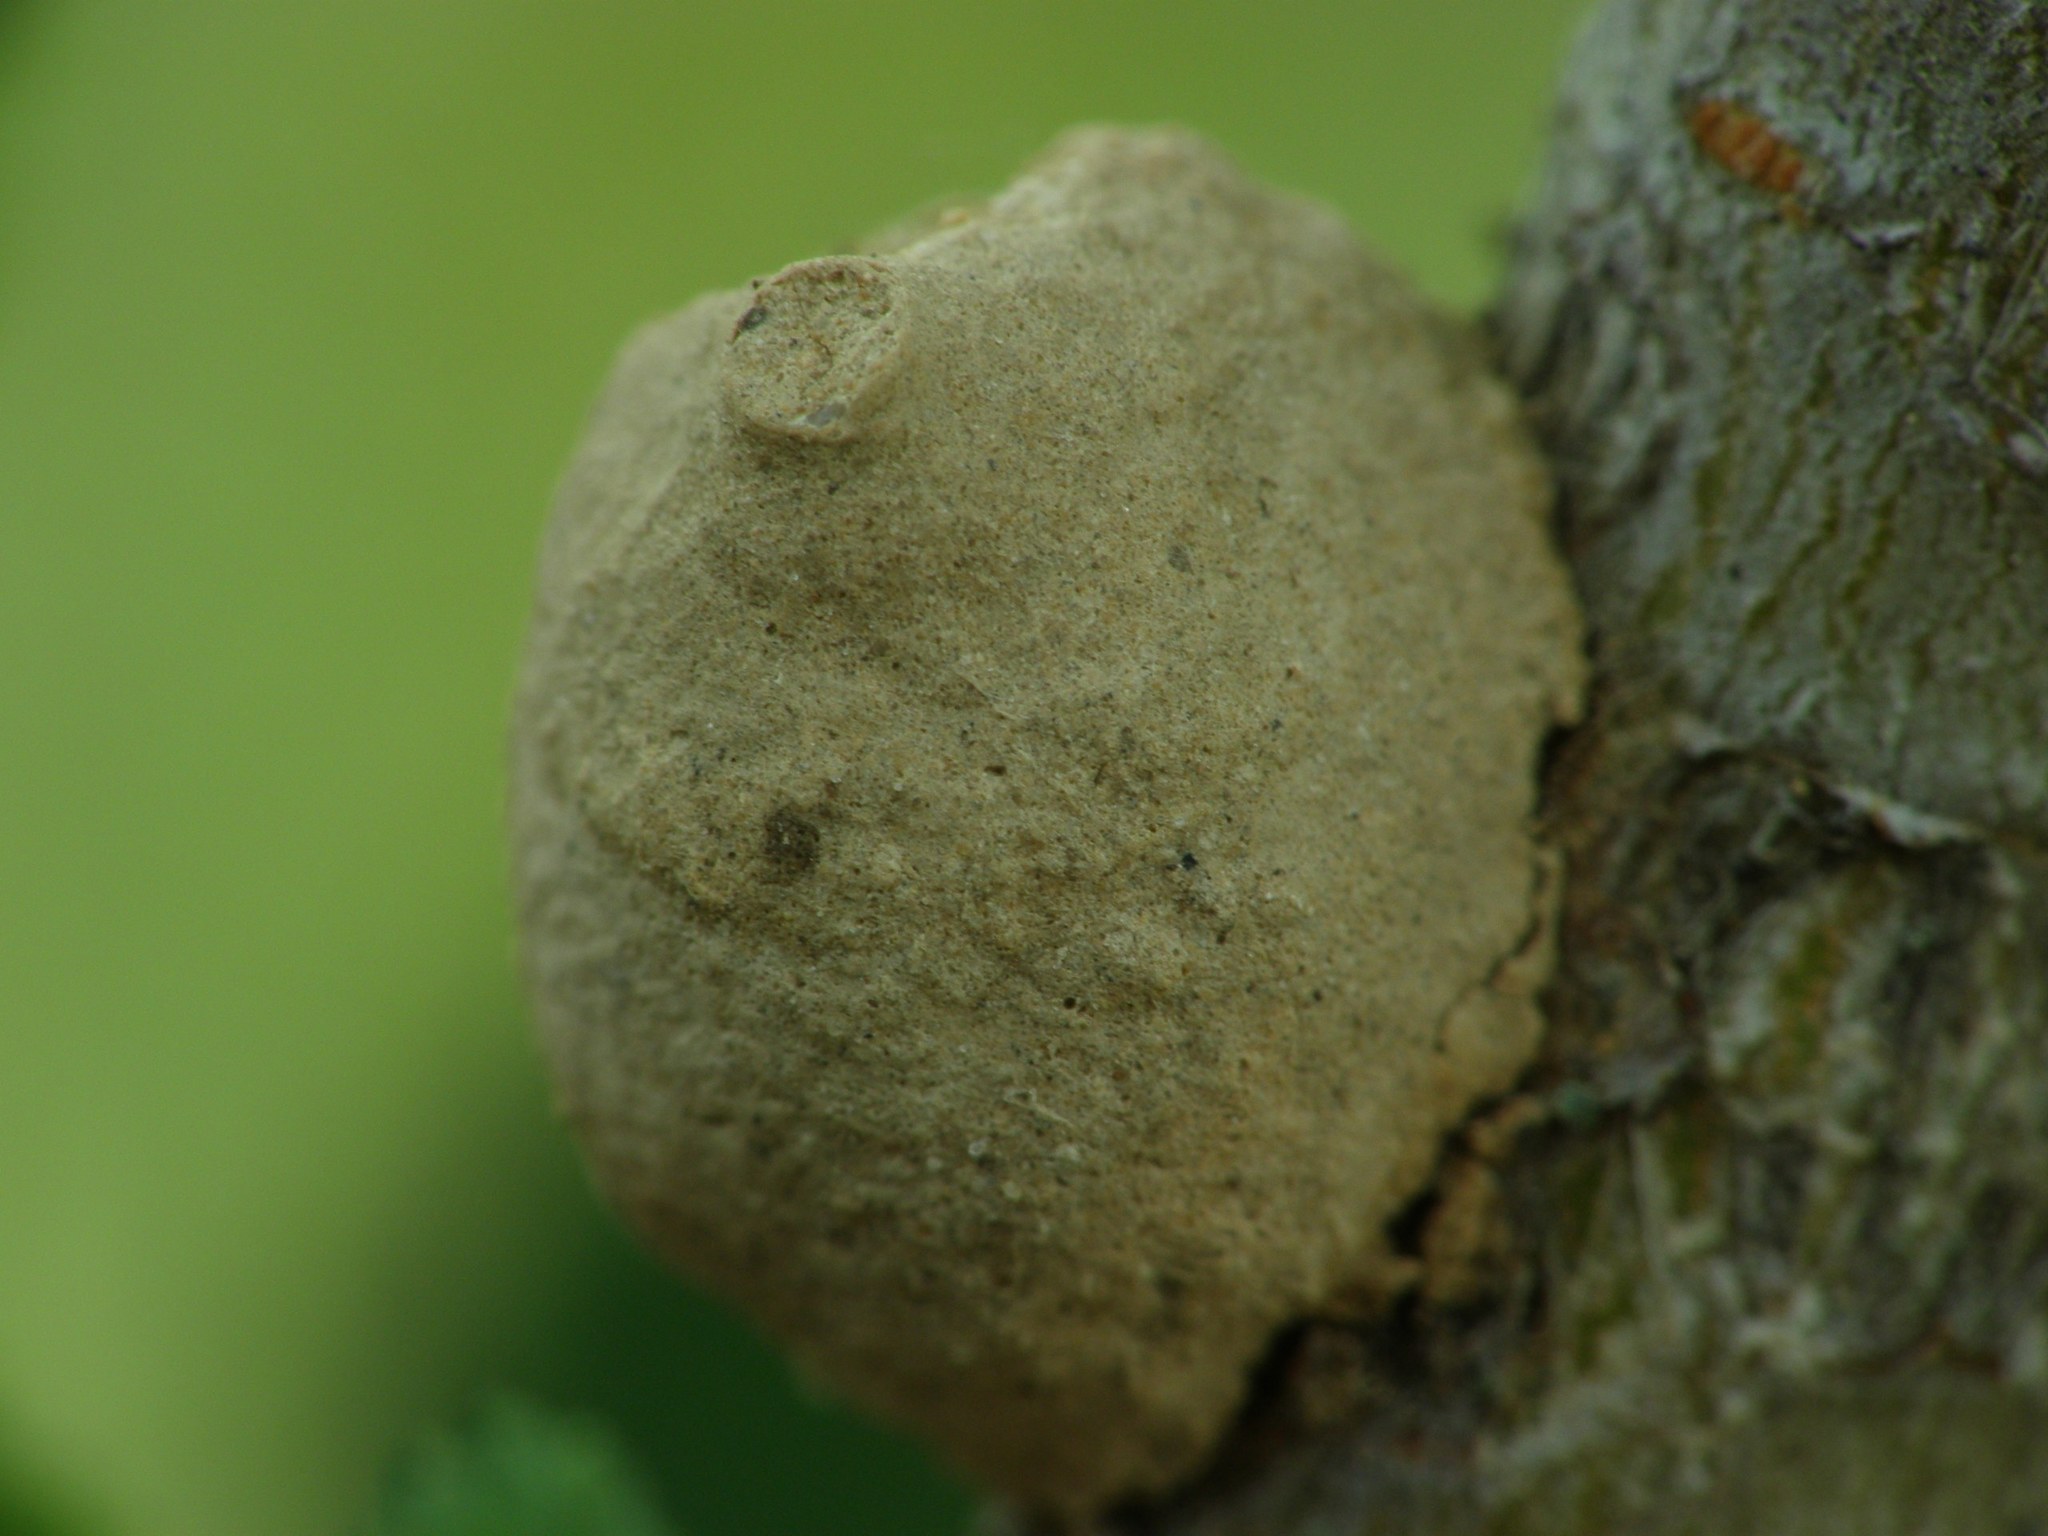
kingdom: Animalia
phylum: Arthropoda
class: Insecta
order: Hymenoptera
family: Eumenidae
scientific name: Eumenidae
